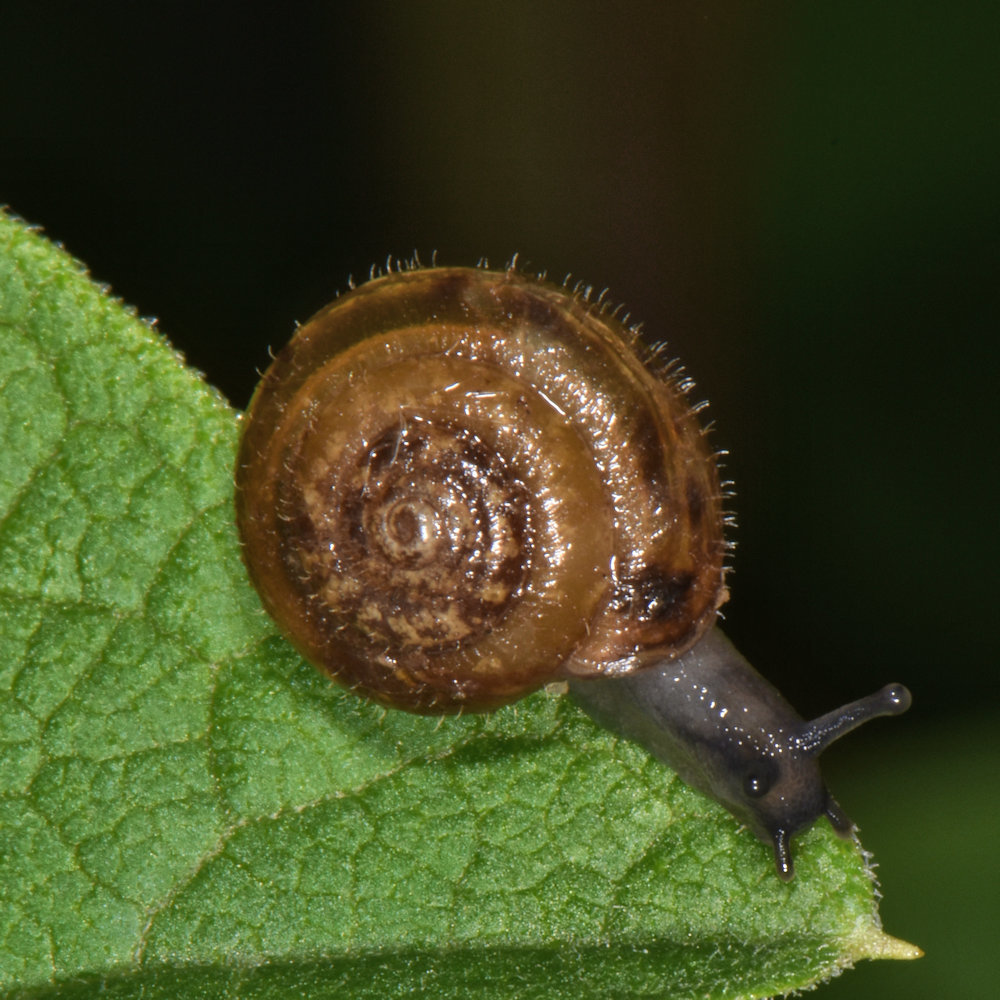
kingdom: Animalia
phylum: Mollusca
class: Gastropoda
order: Stylommatophora
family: Hygromiidae
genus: Trochulus
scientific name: Trochulus hispidus
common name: Hairy snail
